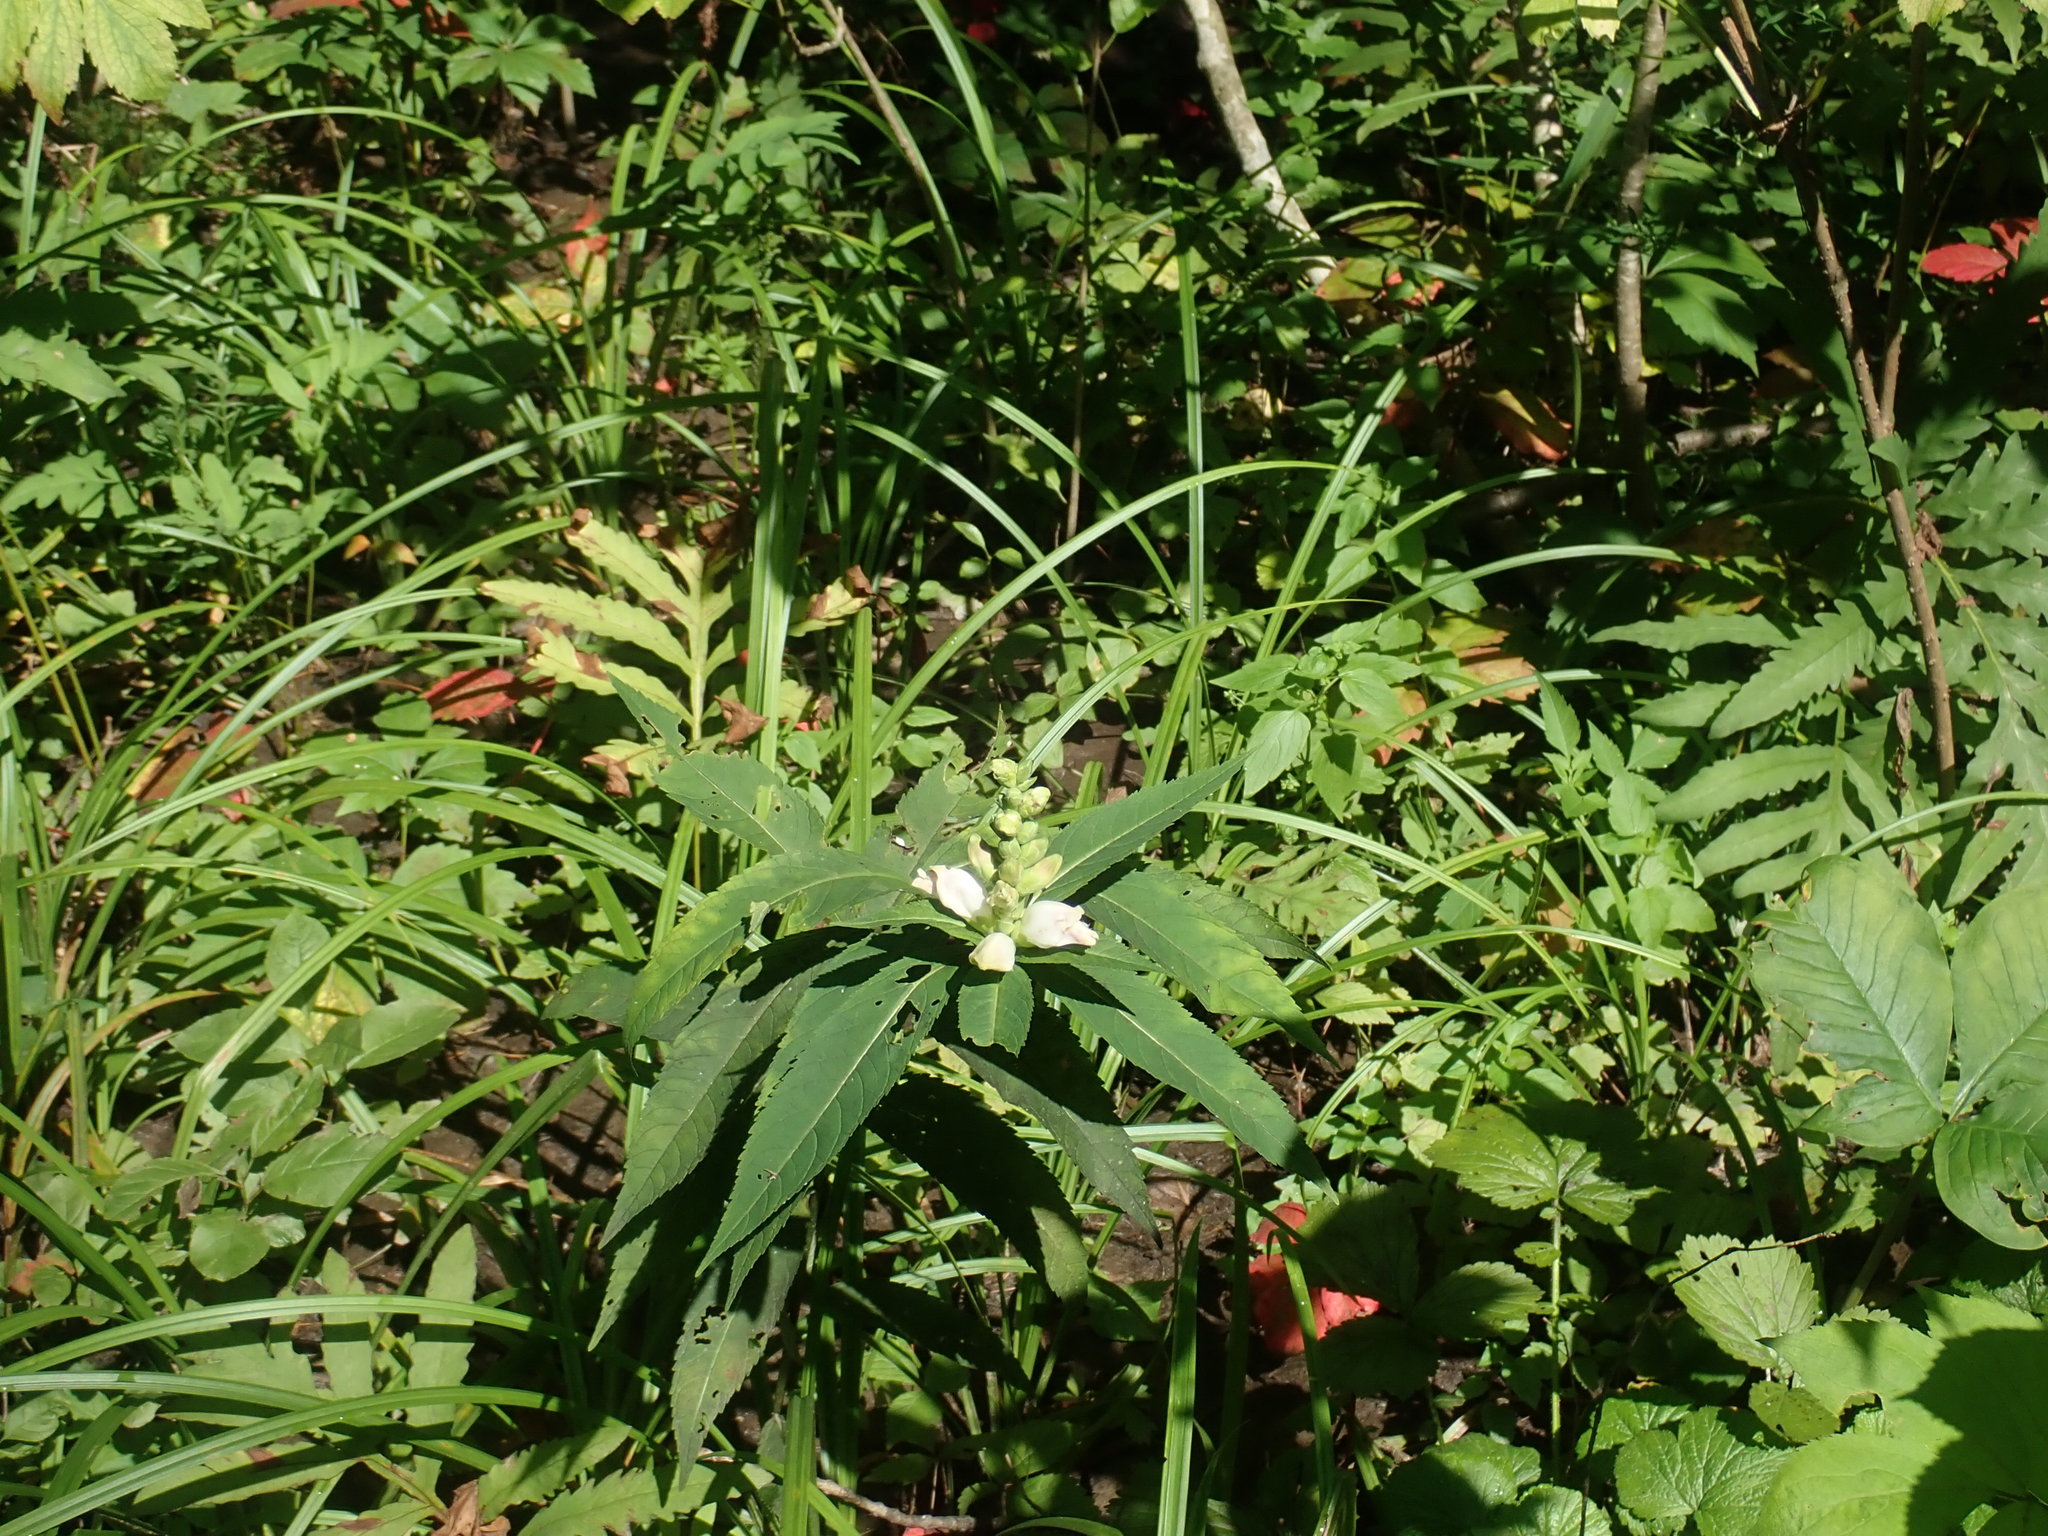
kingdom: Plantae
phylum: Tracheophyta
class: Magnoliopsida
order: Lamiales
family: Plantaginaceae
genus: Chelone
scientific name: Chelone glabra
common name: Snakehead
